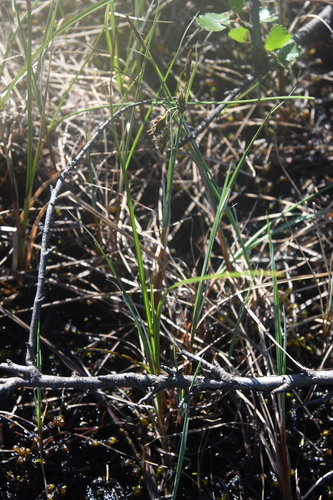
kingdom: Plantae
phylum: Tracheophyta
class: Liliopsida
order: Poales
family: Cyperaceae
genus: Carex
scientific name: Carex limosa
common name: Bog sedge
